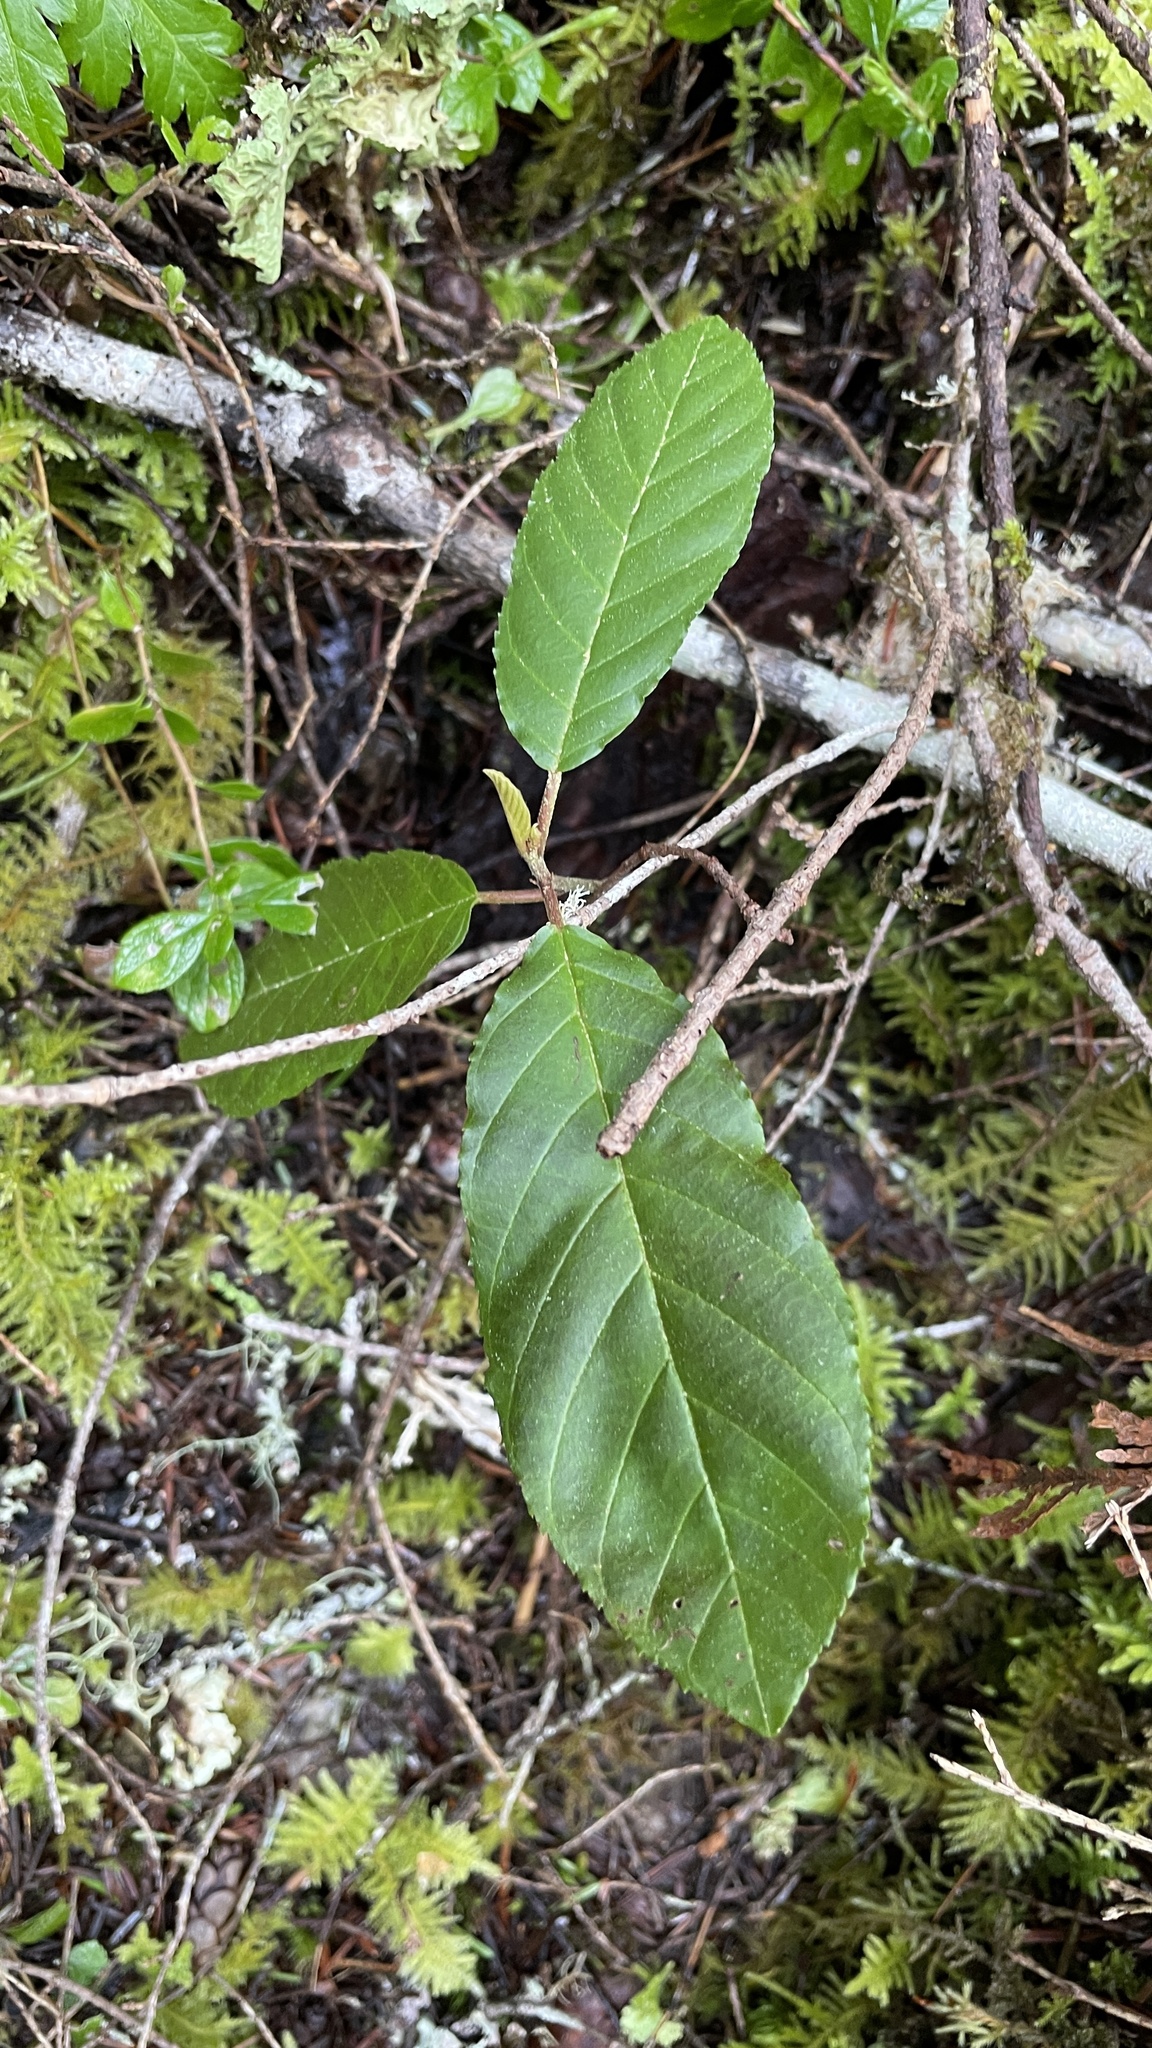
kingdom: Plantae
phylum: Tracheophyta
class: Magnoliopsida
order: Rosales
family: Rhamnaceae
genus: Frangula
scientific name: Frangula purshiana
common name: Cascara buckthorn
